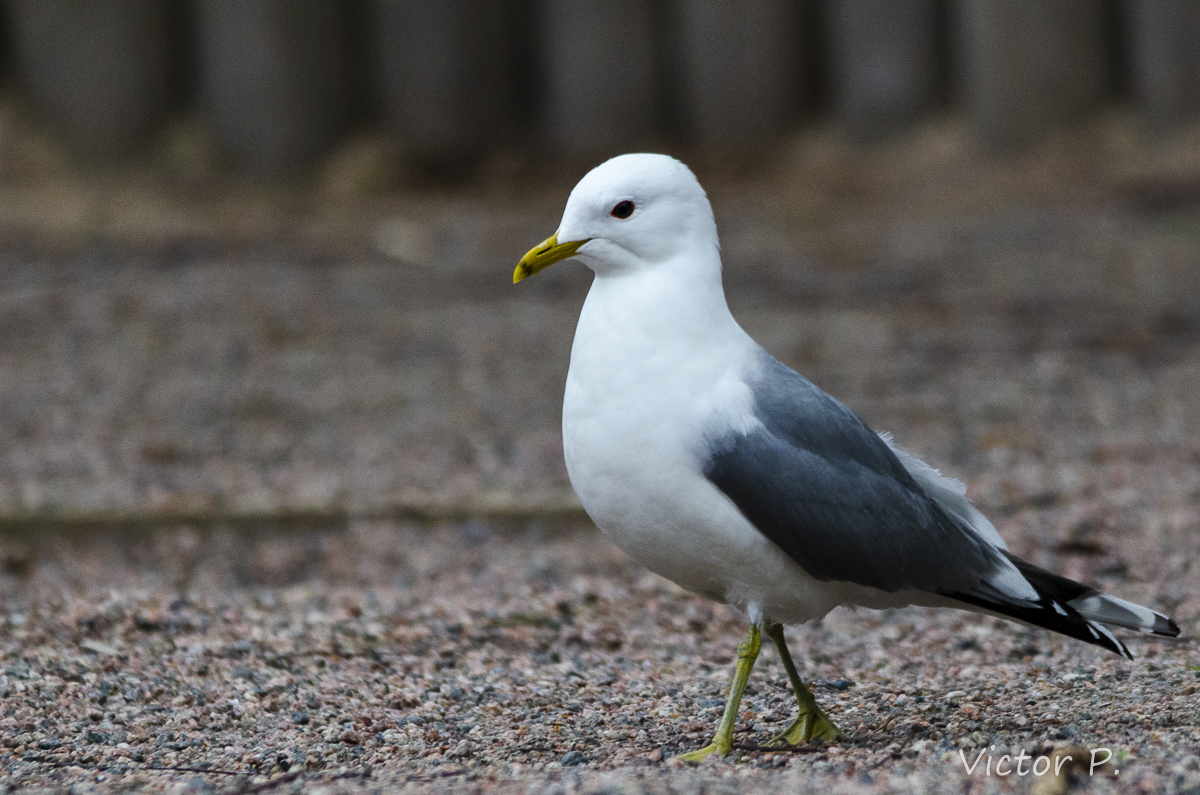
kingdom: Animalia
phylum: Chordata
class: Aves
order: Charadriiformes
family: Laridae
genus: Larus
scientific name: Larus canus
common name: Mew gull
